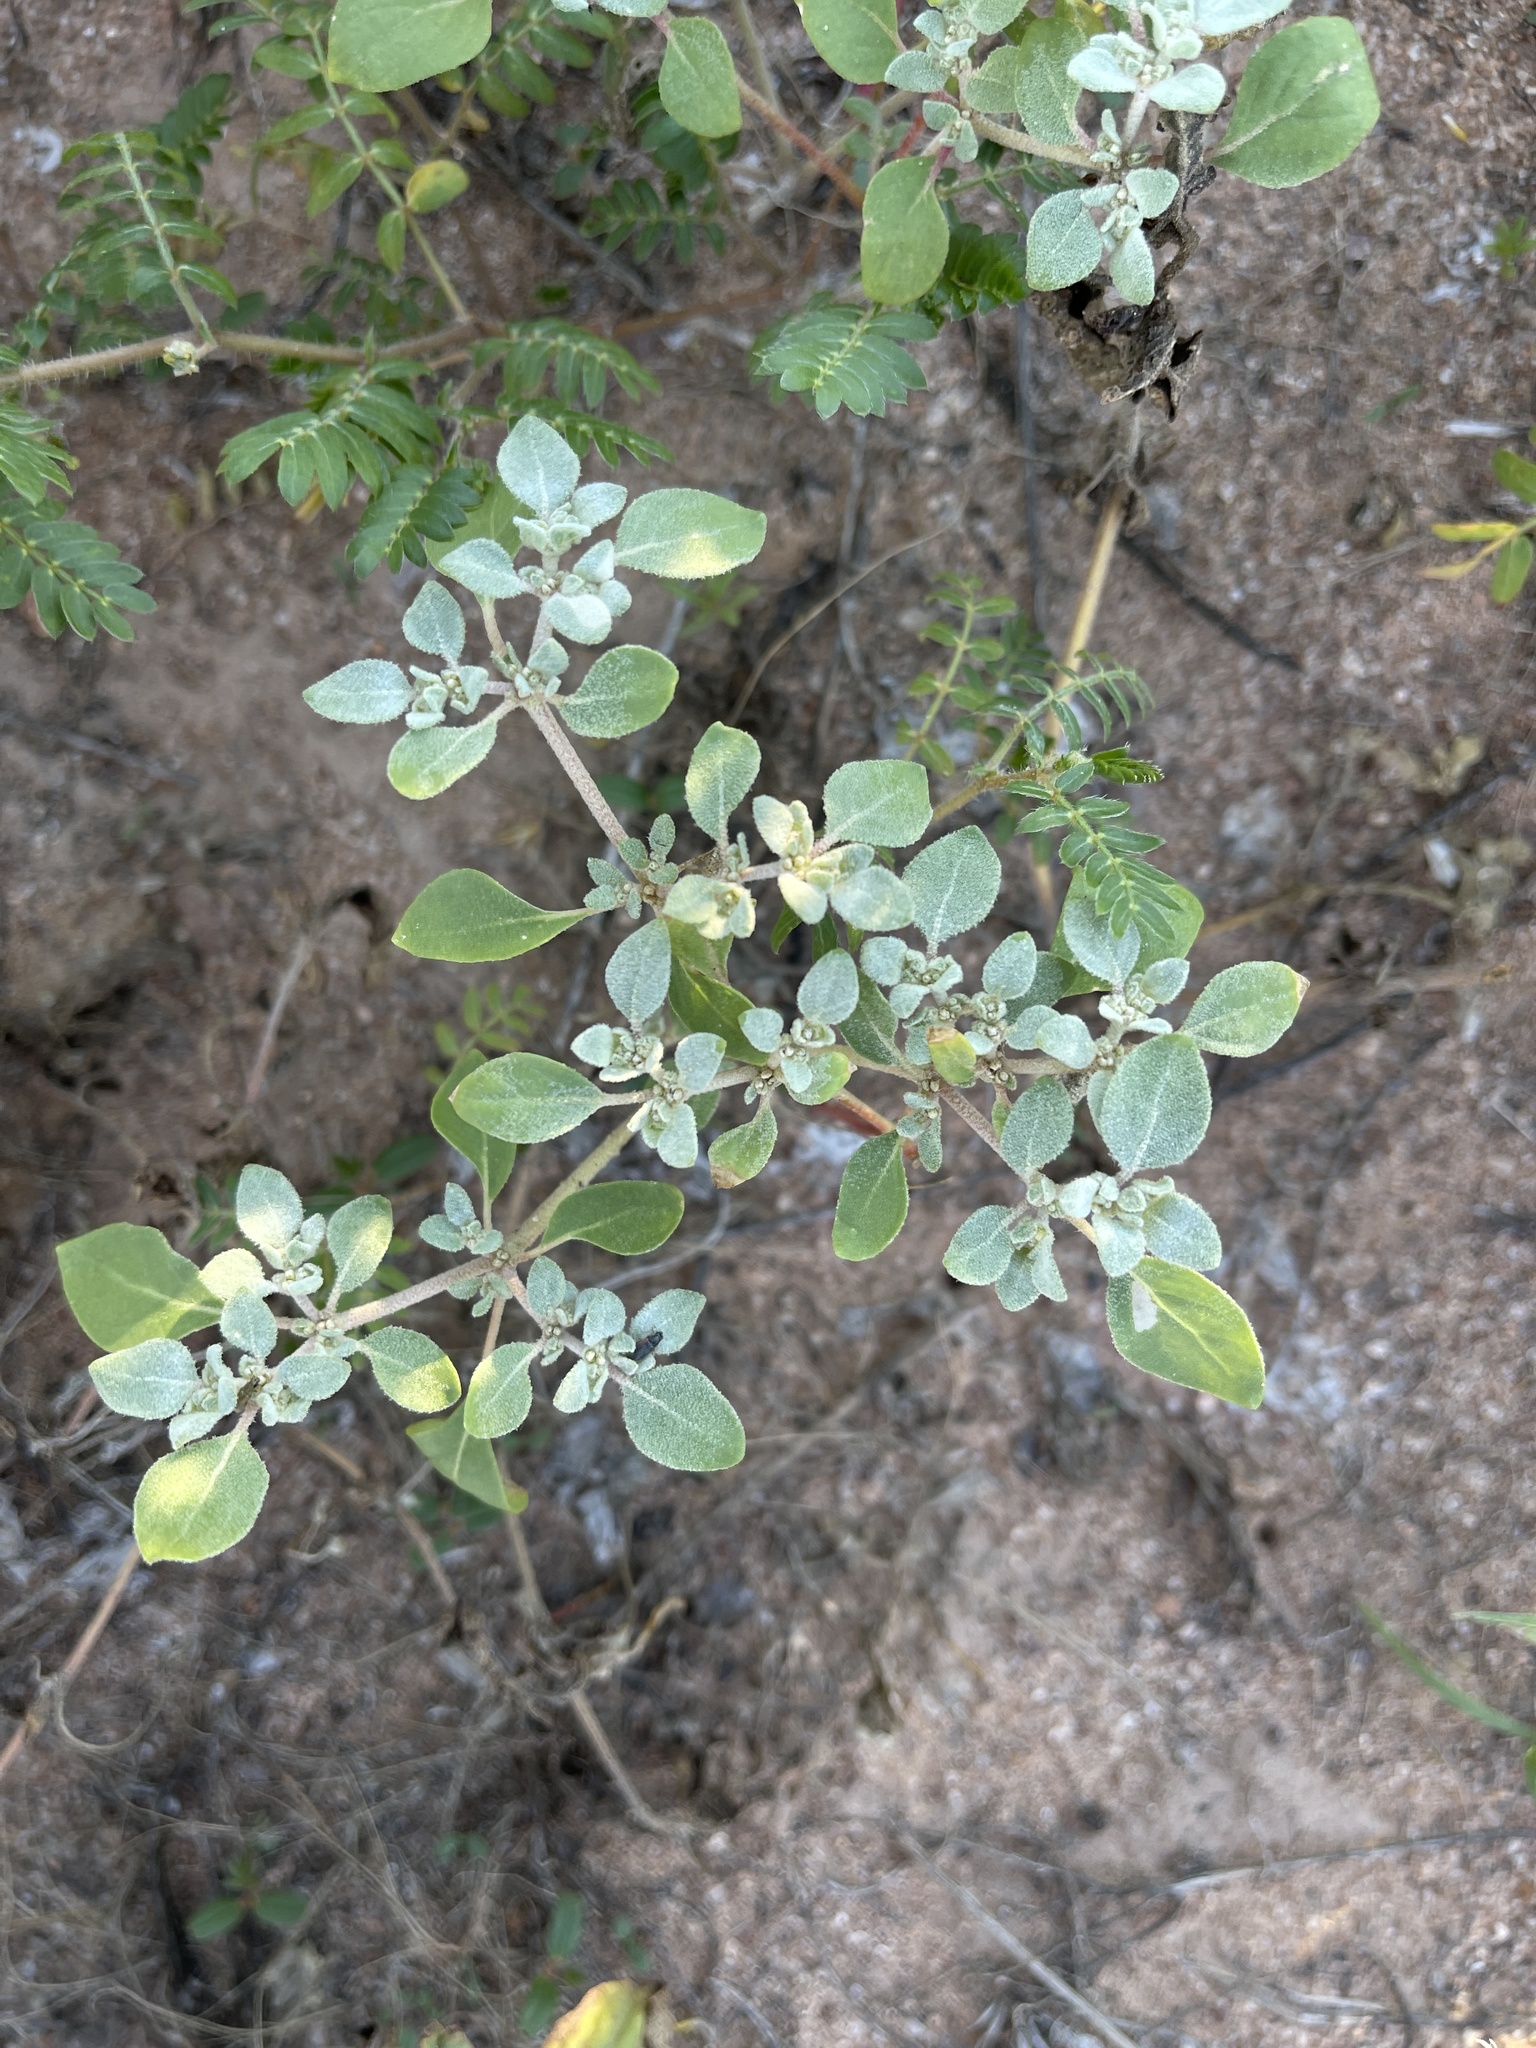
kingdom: Plantae
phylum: Tracheophyta
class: Magnoliopsida
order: Caryophyllales
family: Amaranthaceae
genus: Tidestromia
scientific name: Tidestromia lanuginosa
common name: Woolly tidestromia
